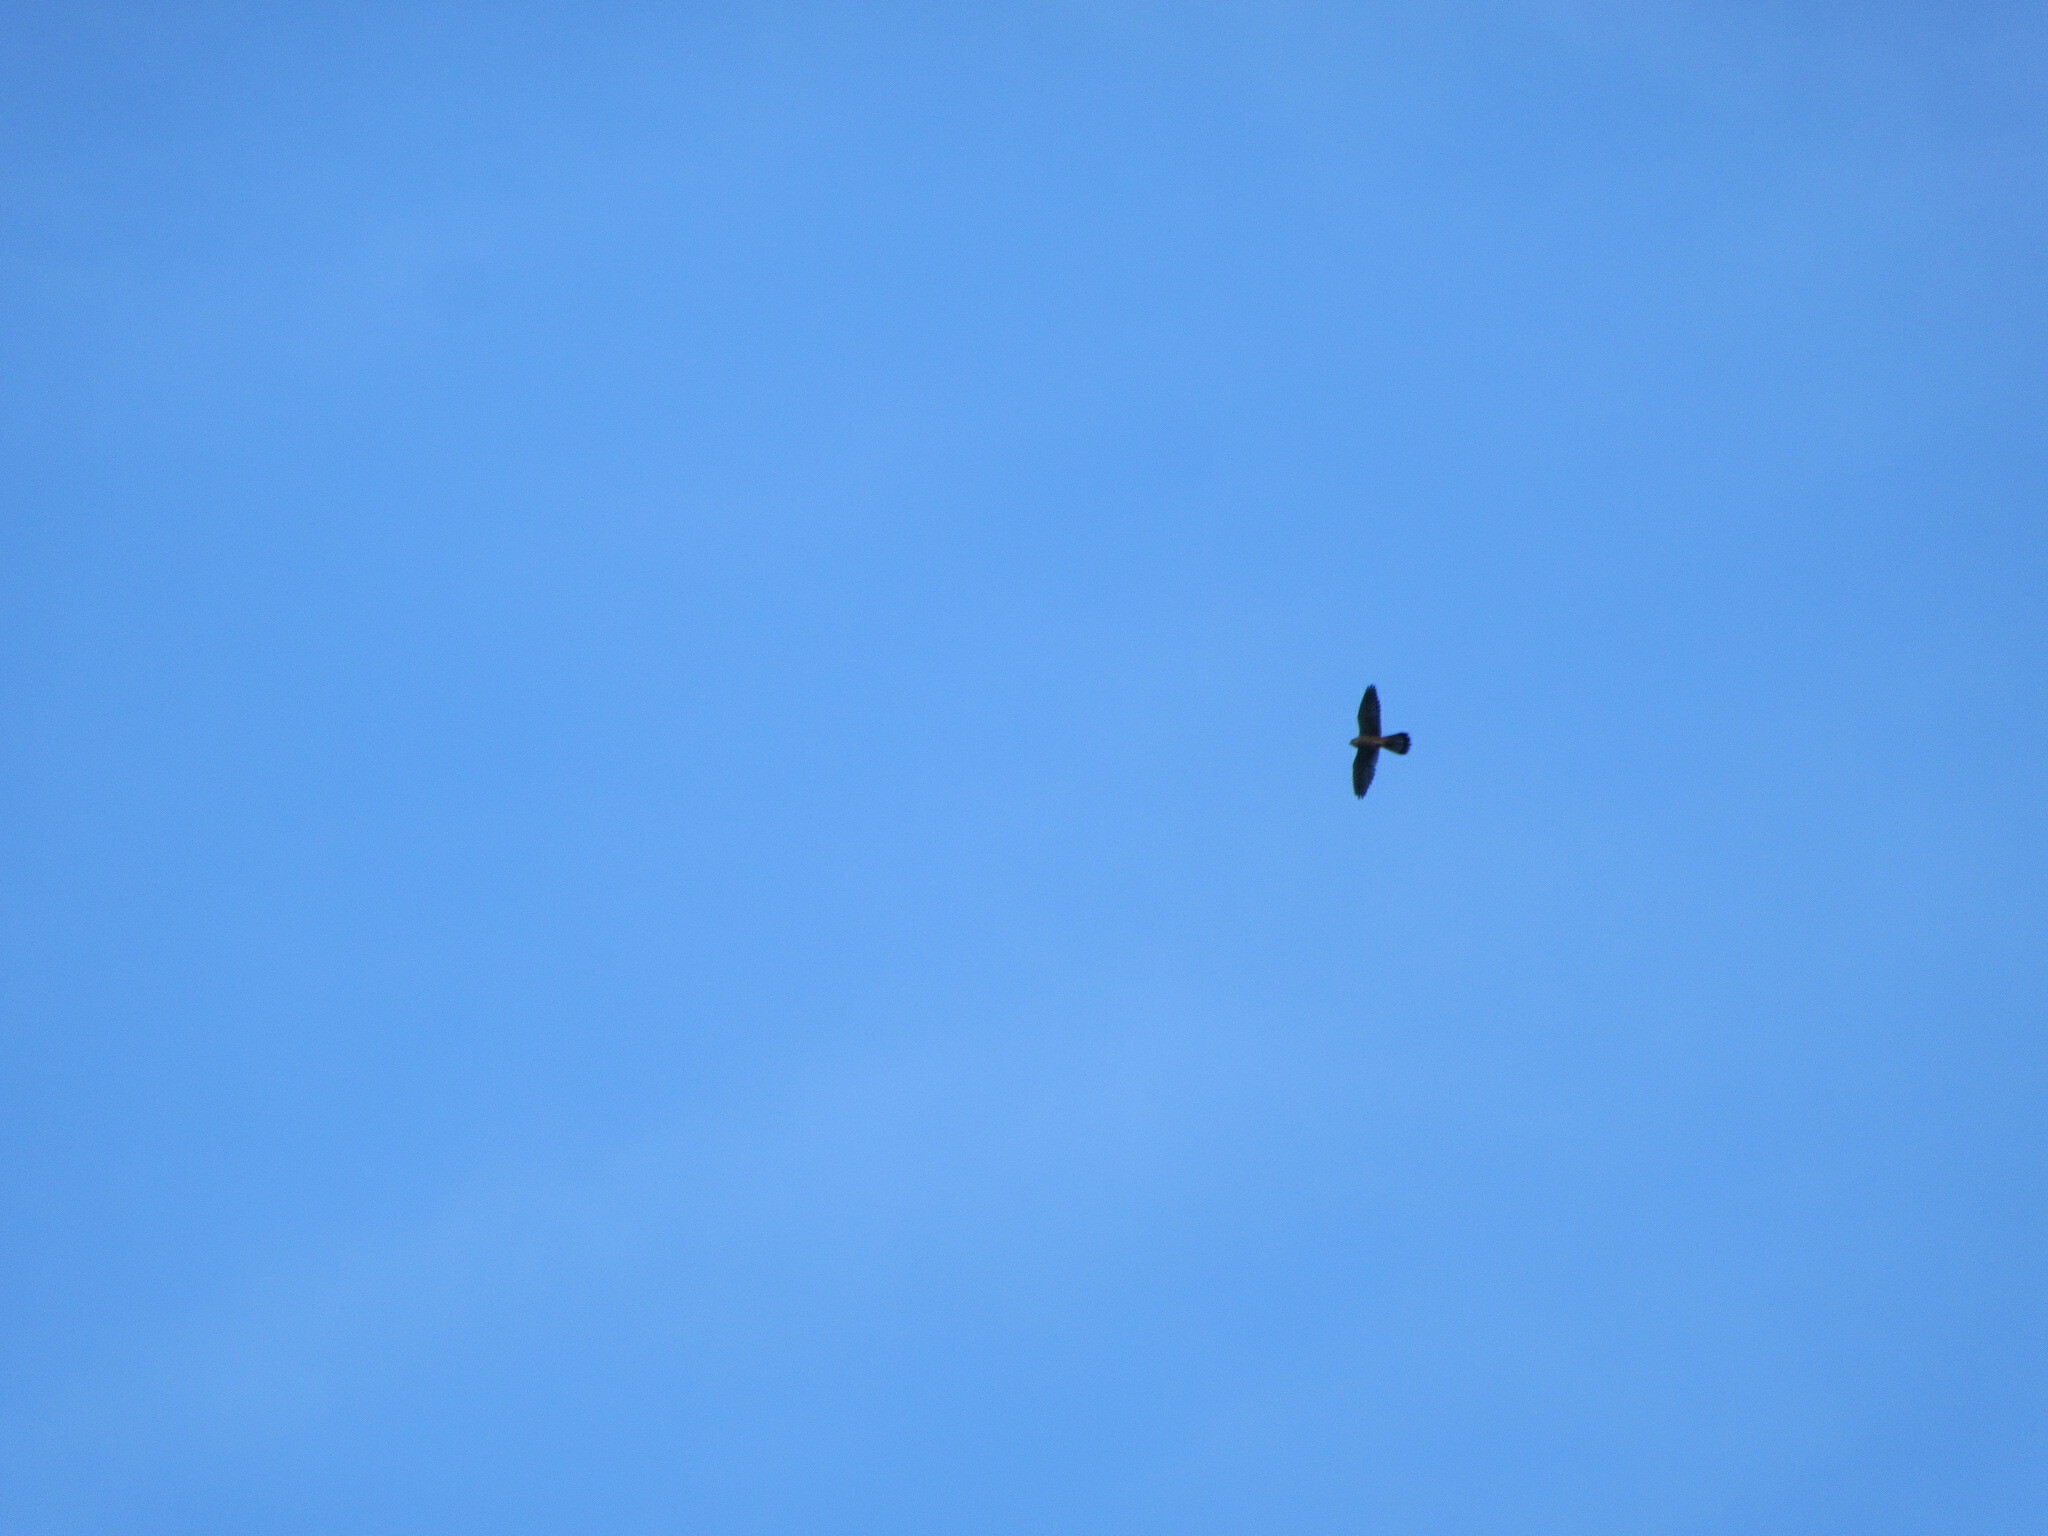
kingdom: Animalia
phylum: Chordata
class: Aves
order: Falconiformes
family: Falconidae
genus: Falco
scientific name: Falco tinnunculus
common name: Common kestrel
